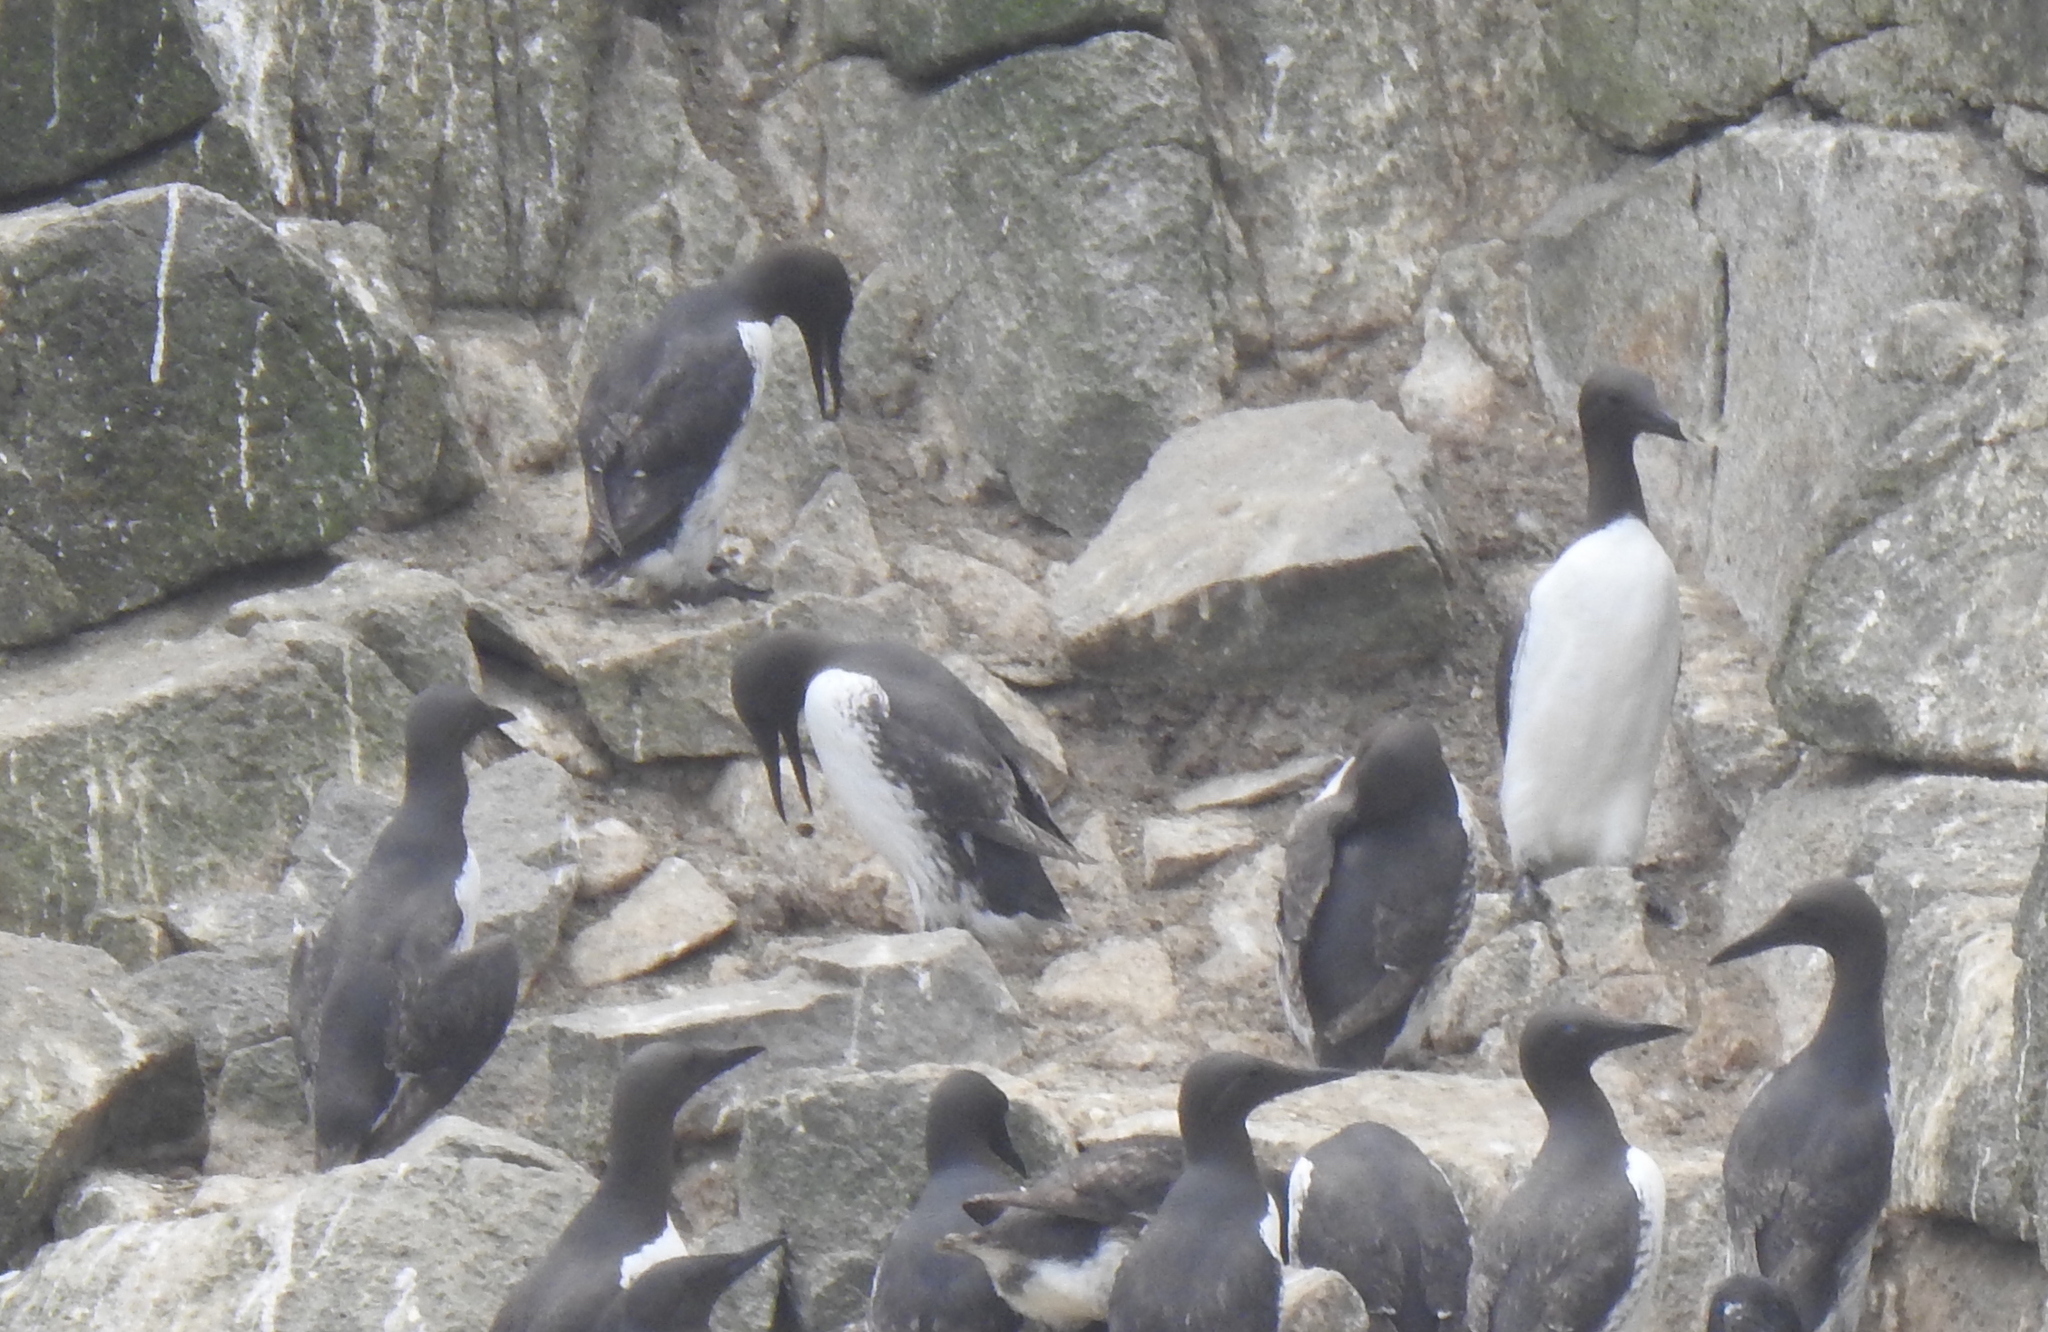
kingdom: Animalia
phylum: Chordata
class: Aves
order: Charadriiformes
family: Alcidae
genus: Uria
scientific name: Uria aalge
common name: Common murre
